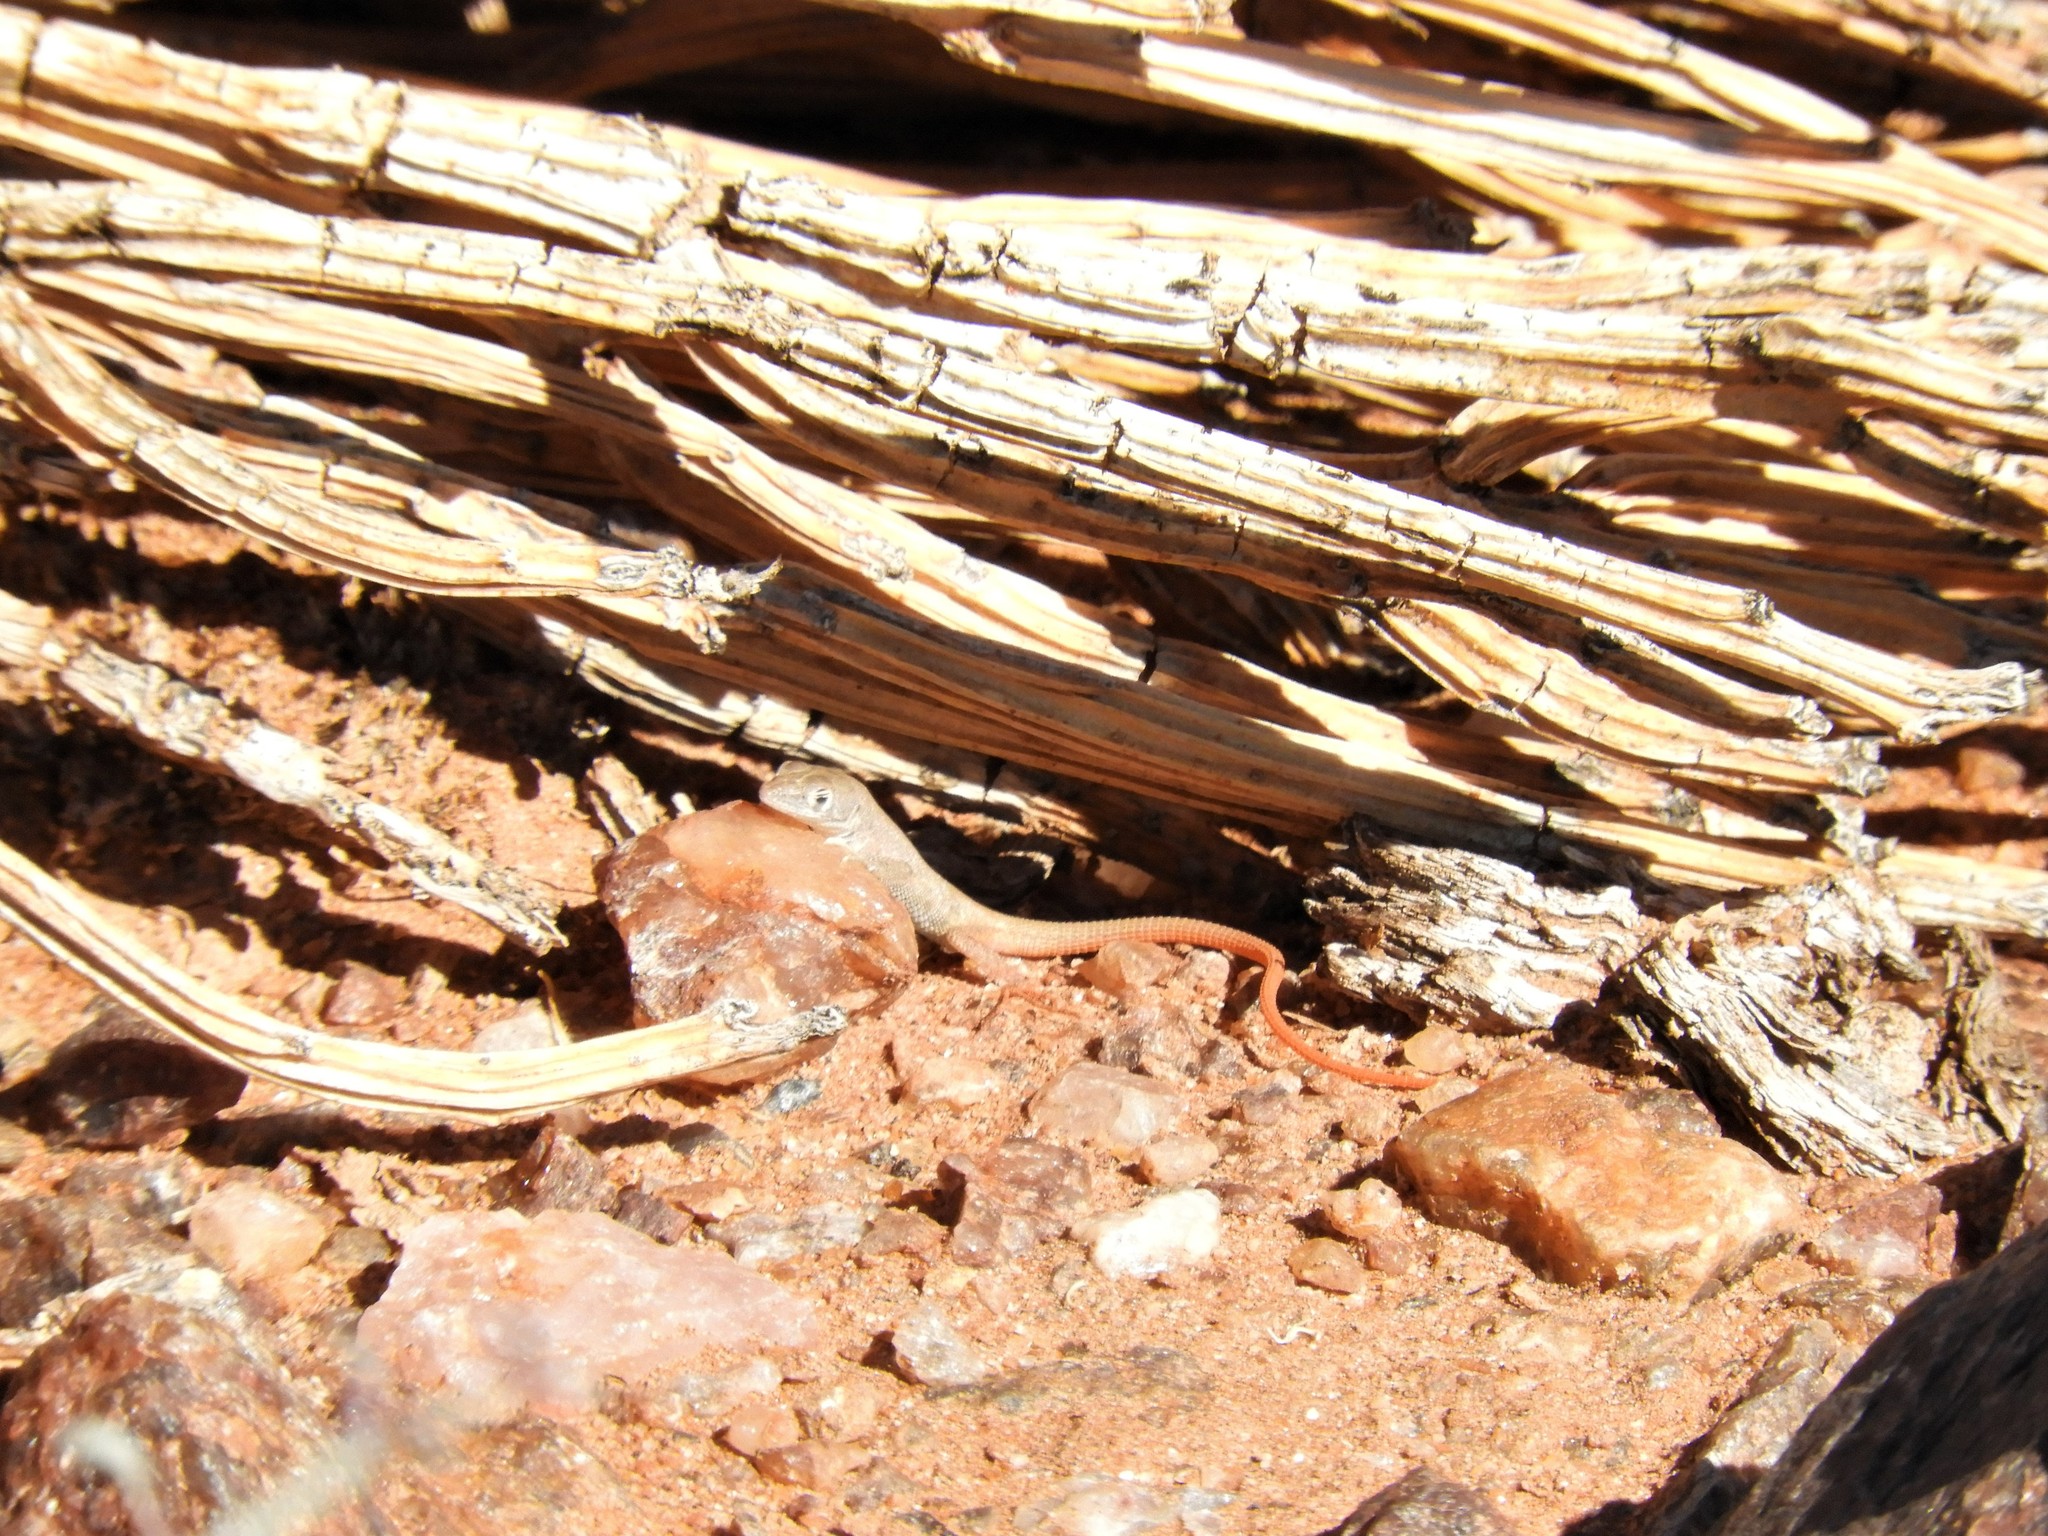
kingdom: Animalia
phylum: Chordata
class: Squamata
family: Lacertidae
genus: Pedioplanis
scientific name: Pedioplanis inornata
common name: Plain sand lizard
